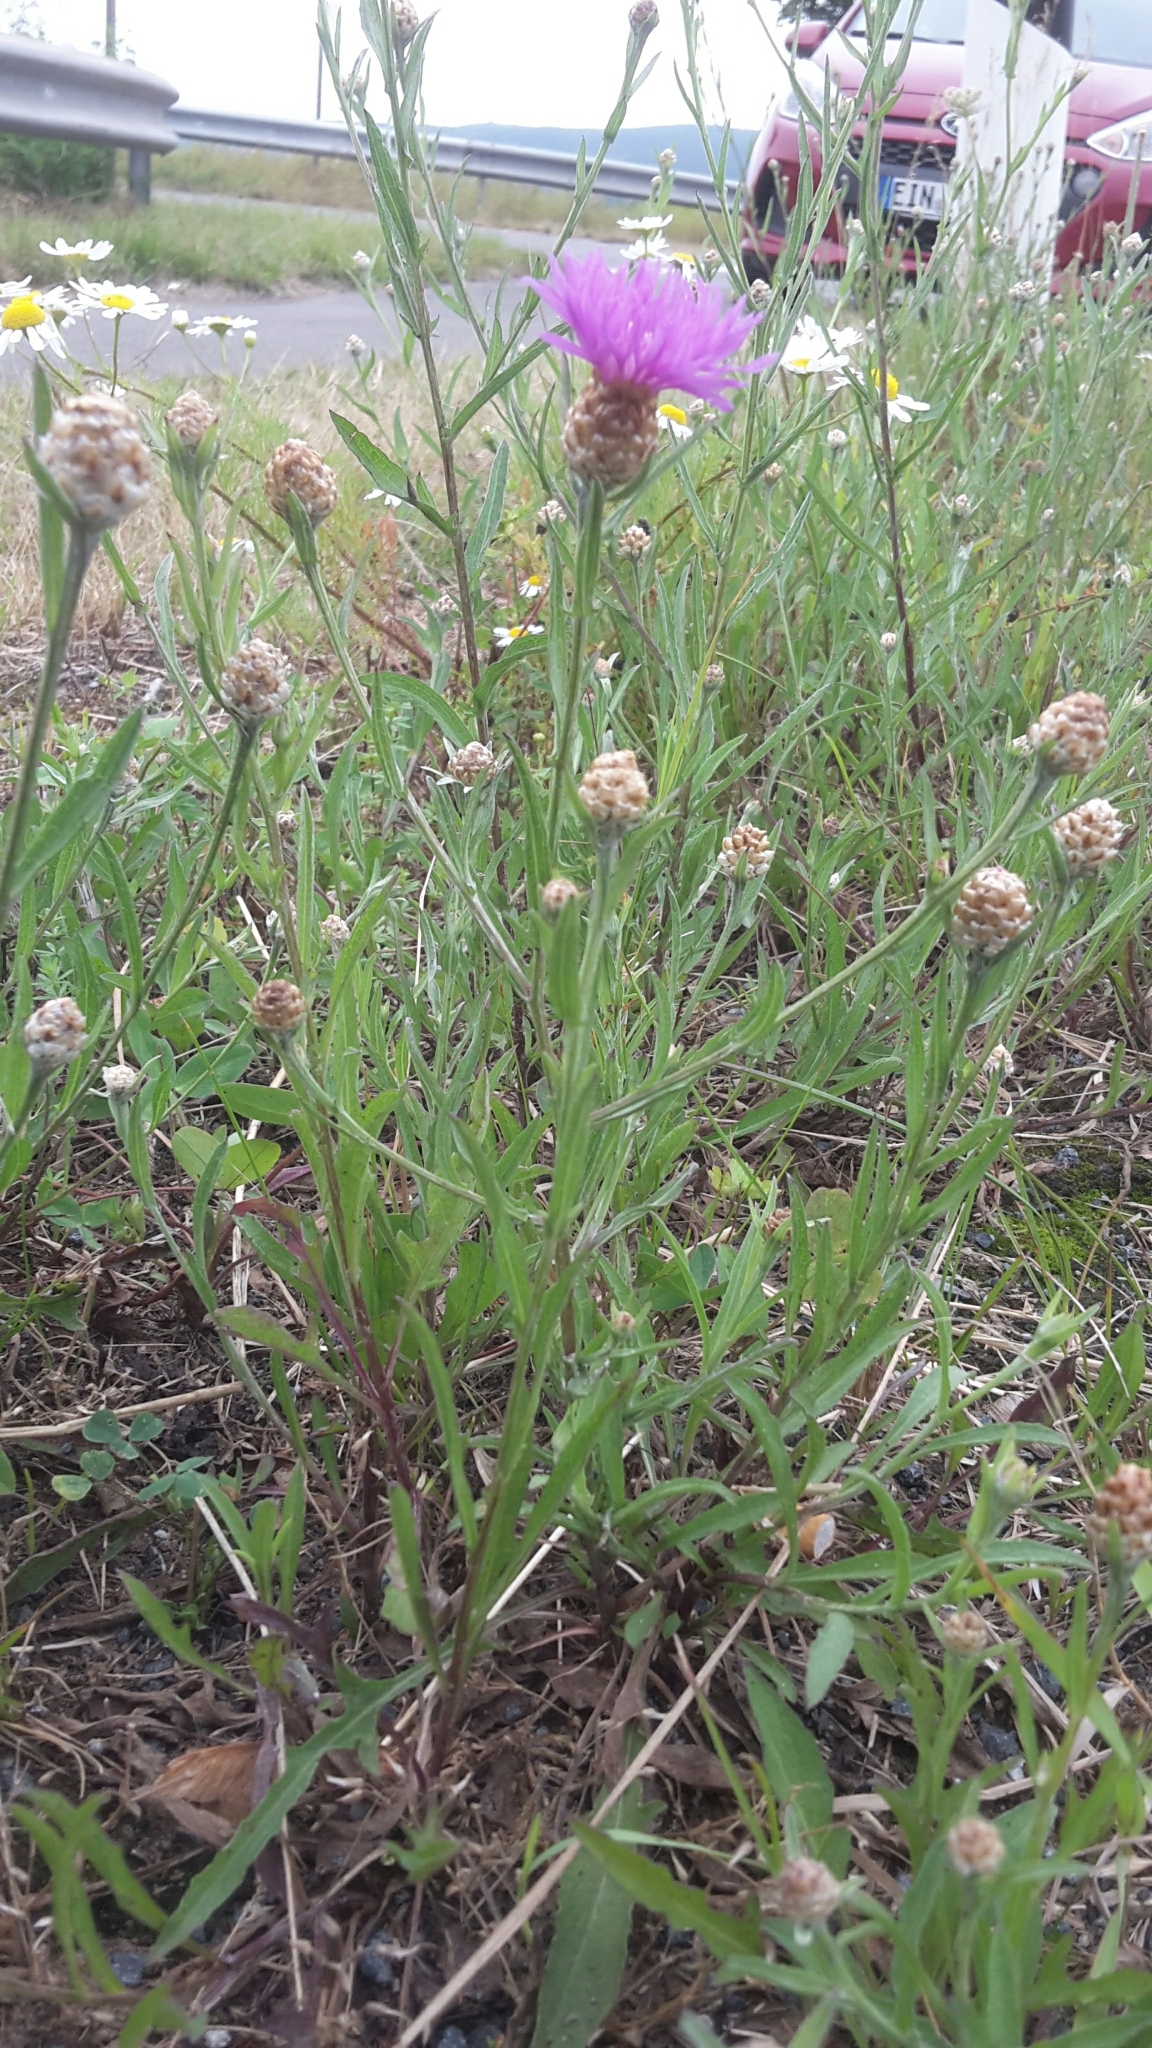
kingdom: Plantae
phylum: Tracheophyta
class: Magnoliopsida
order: Asterales
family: Asteraceae
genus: Centaurea
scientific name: Centaurea jacea
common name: Brown knapweed
